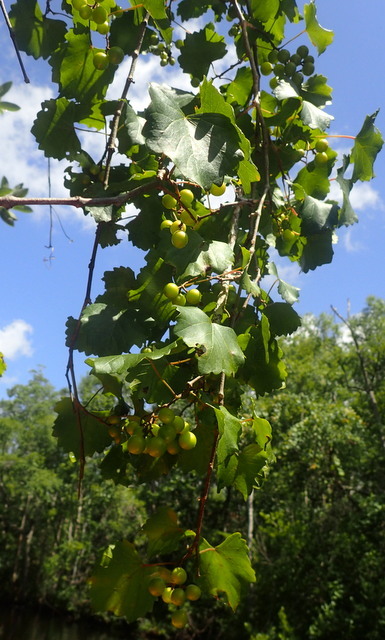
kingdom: Plantae
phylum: Tracheophyta
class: Magnoliopsida
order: Vitales
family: Vitaceae
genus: Vitis
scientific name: Vitis rotundifolia
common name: Muscadine grape
